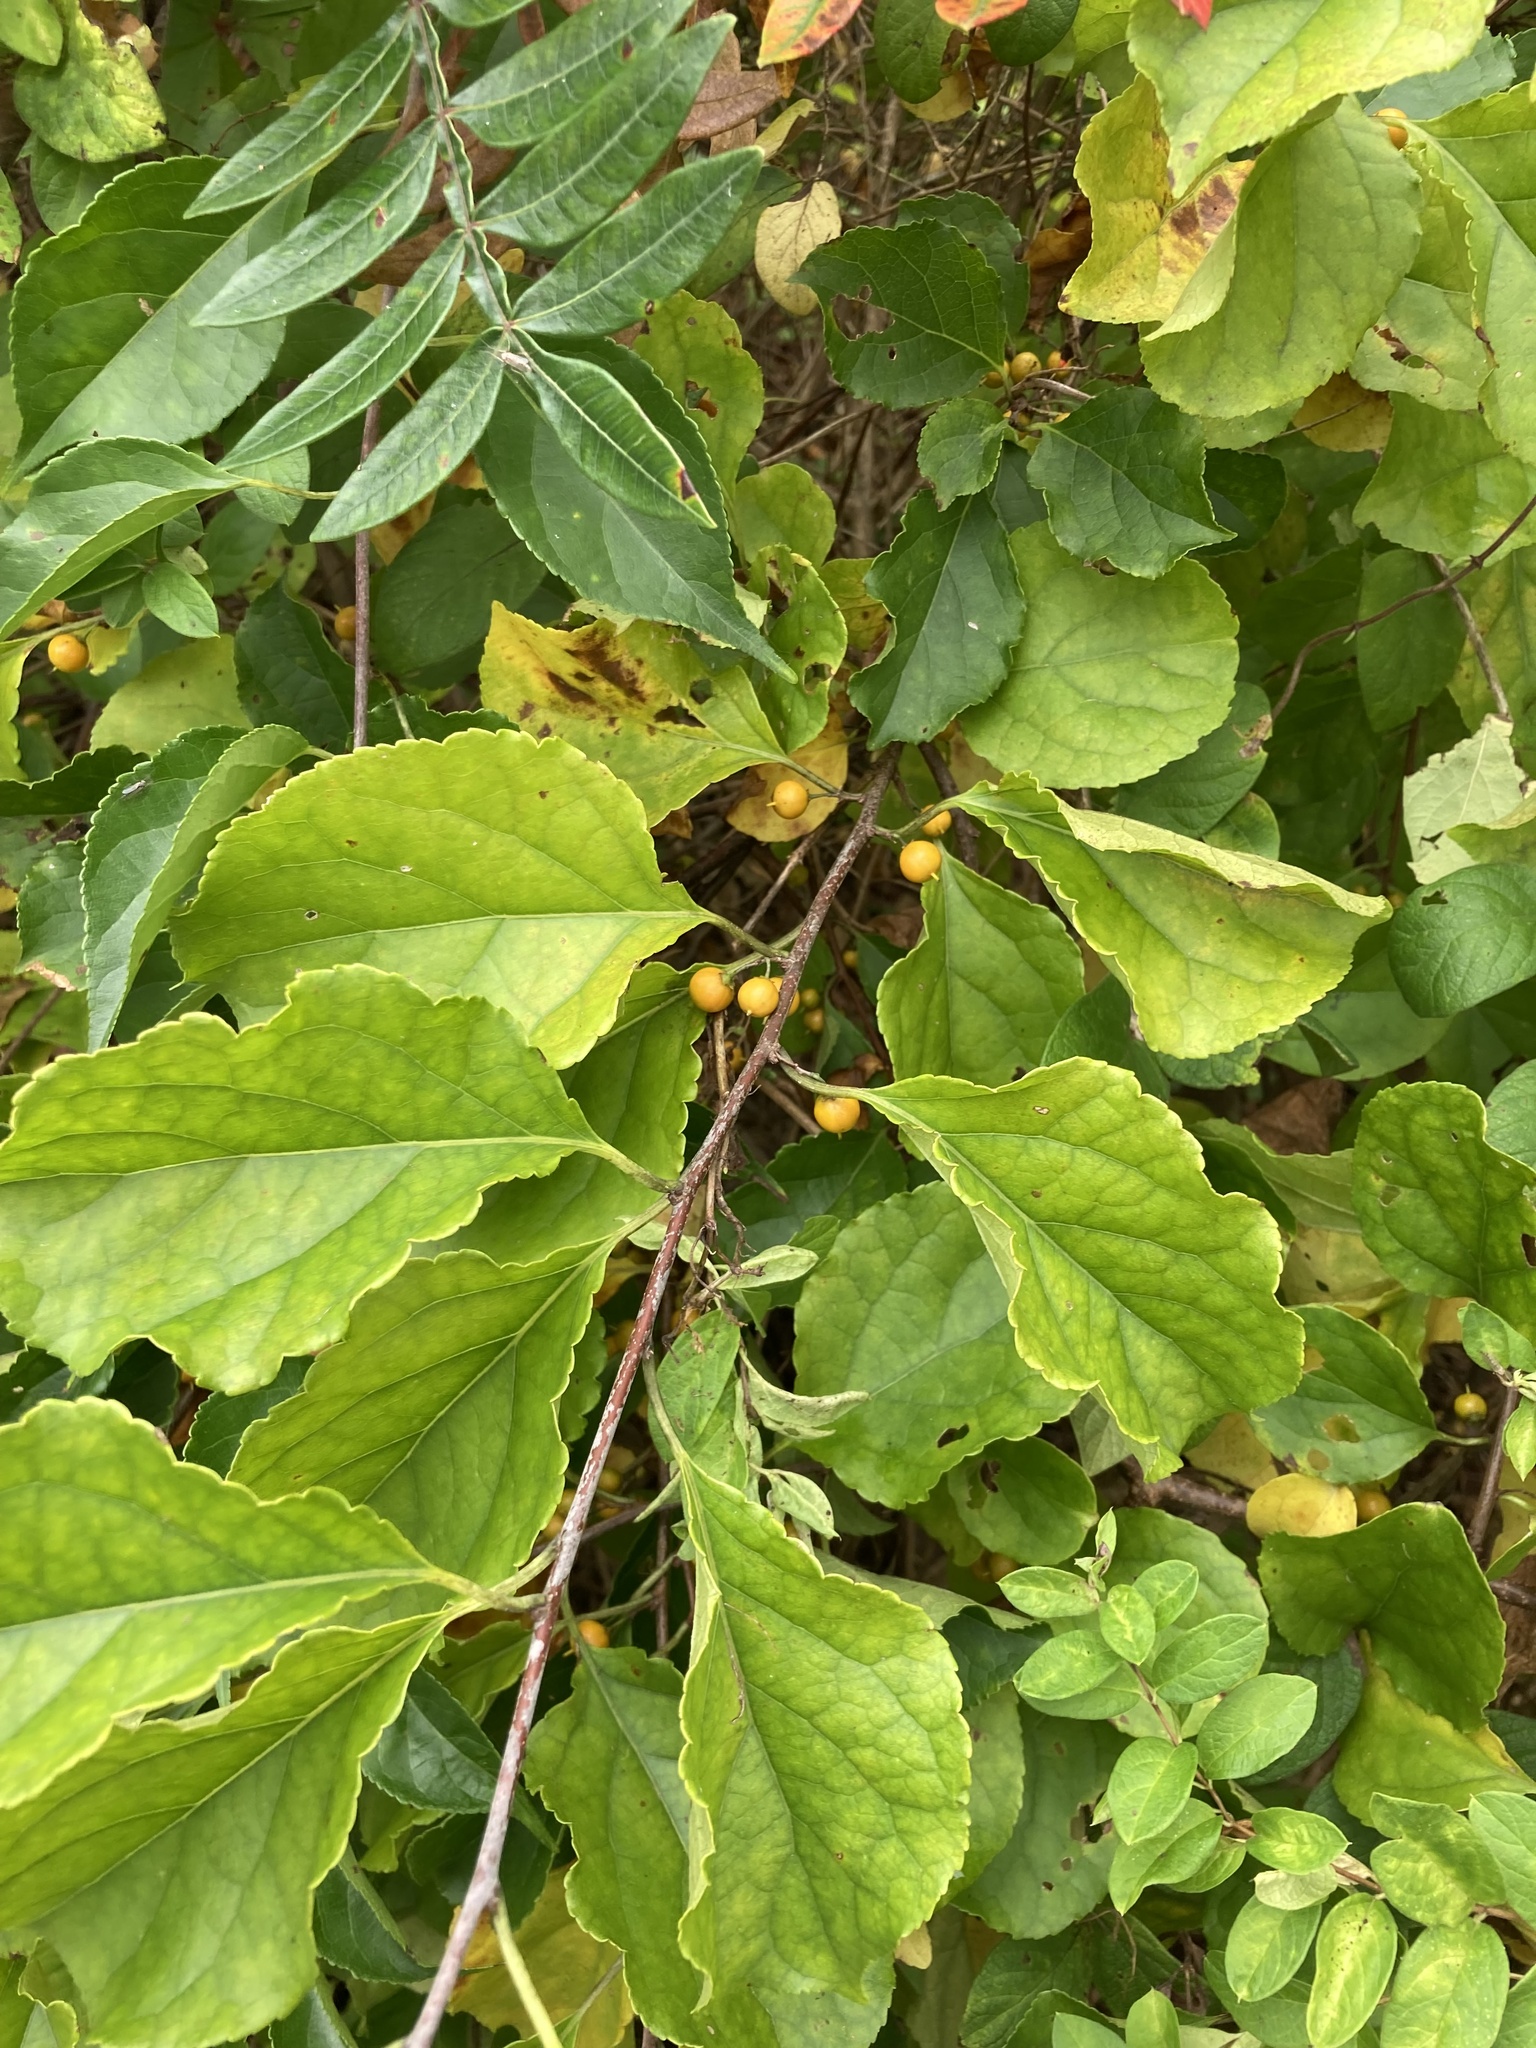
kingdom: Plantae
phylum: Tracheophyta
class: Magnoliopsida
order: Celastrales
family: Celastraceae
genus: Celastrus
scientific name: Celastrus orbiculatus
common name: Oriental bittersweet
